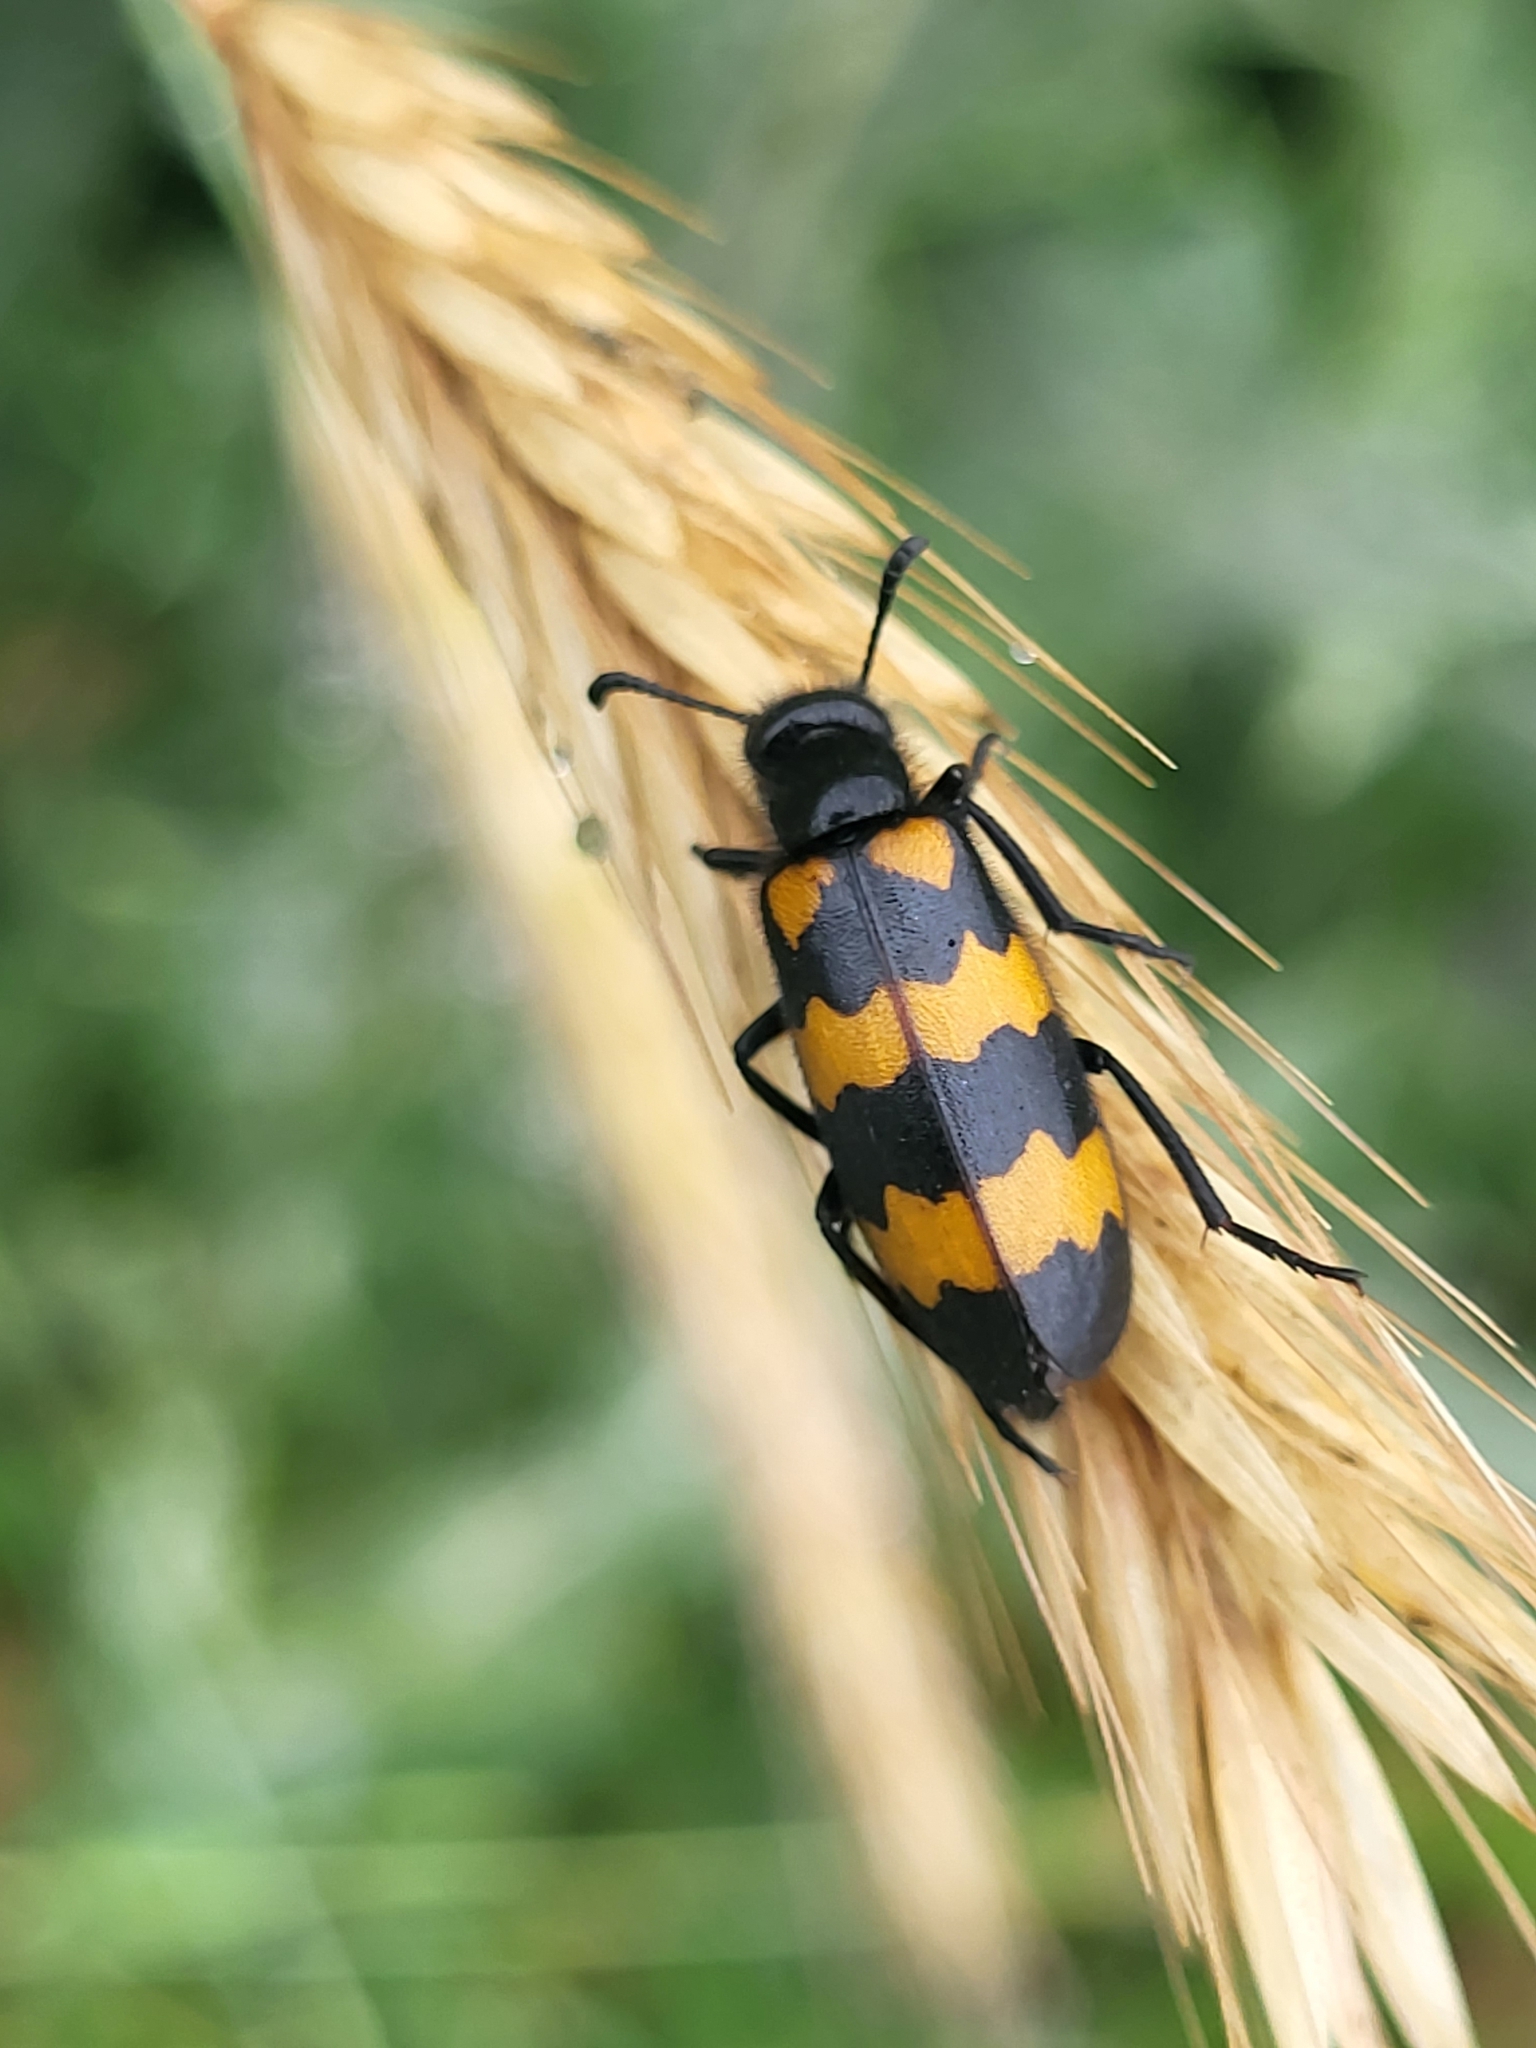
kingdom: Animalia
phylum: Arthropoda
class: Insecta
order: Coleoptera
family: Meloidae
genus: Mylabris
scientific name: Mylabris variabilis
